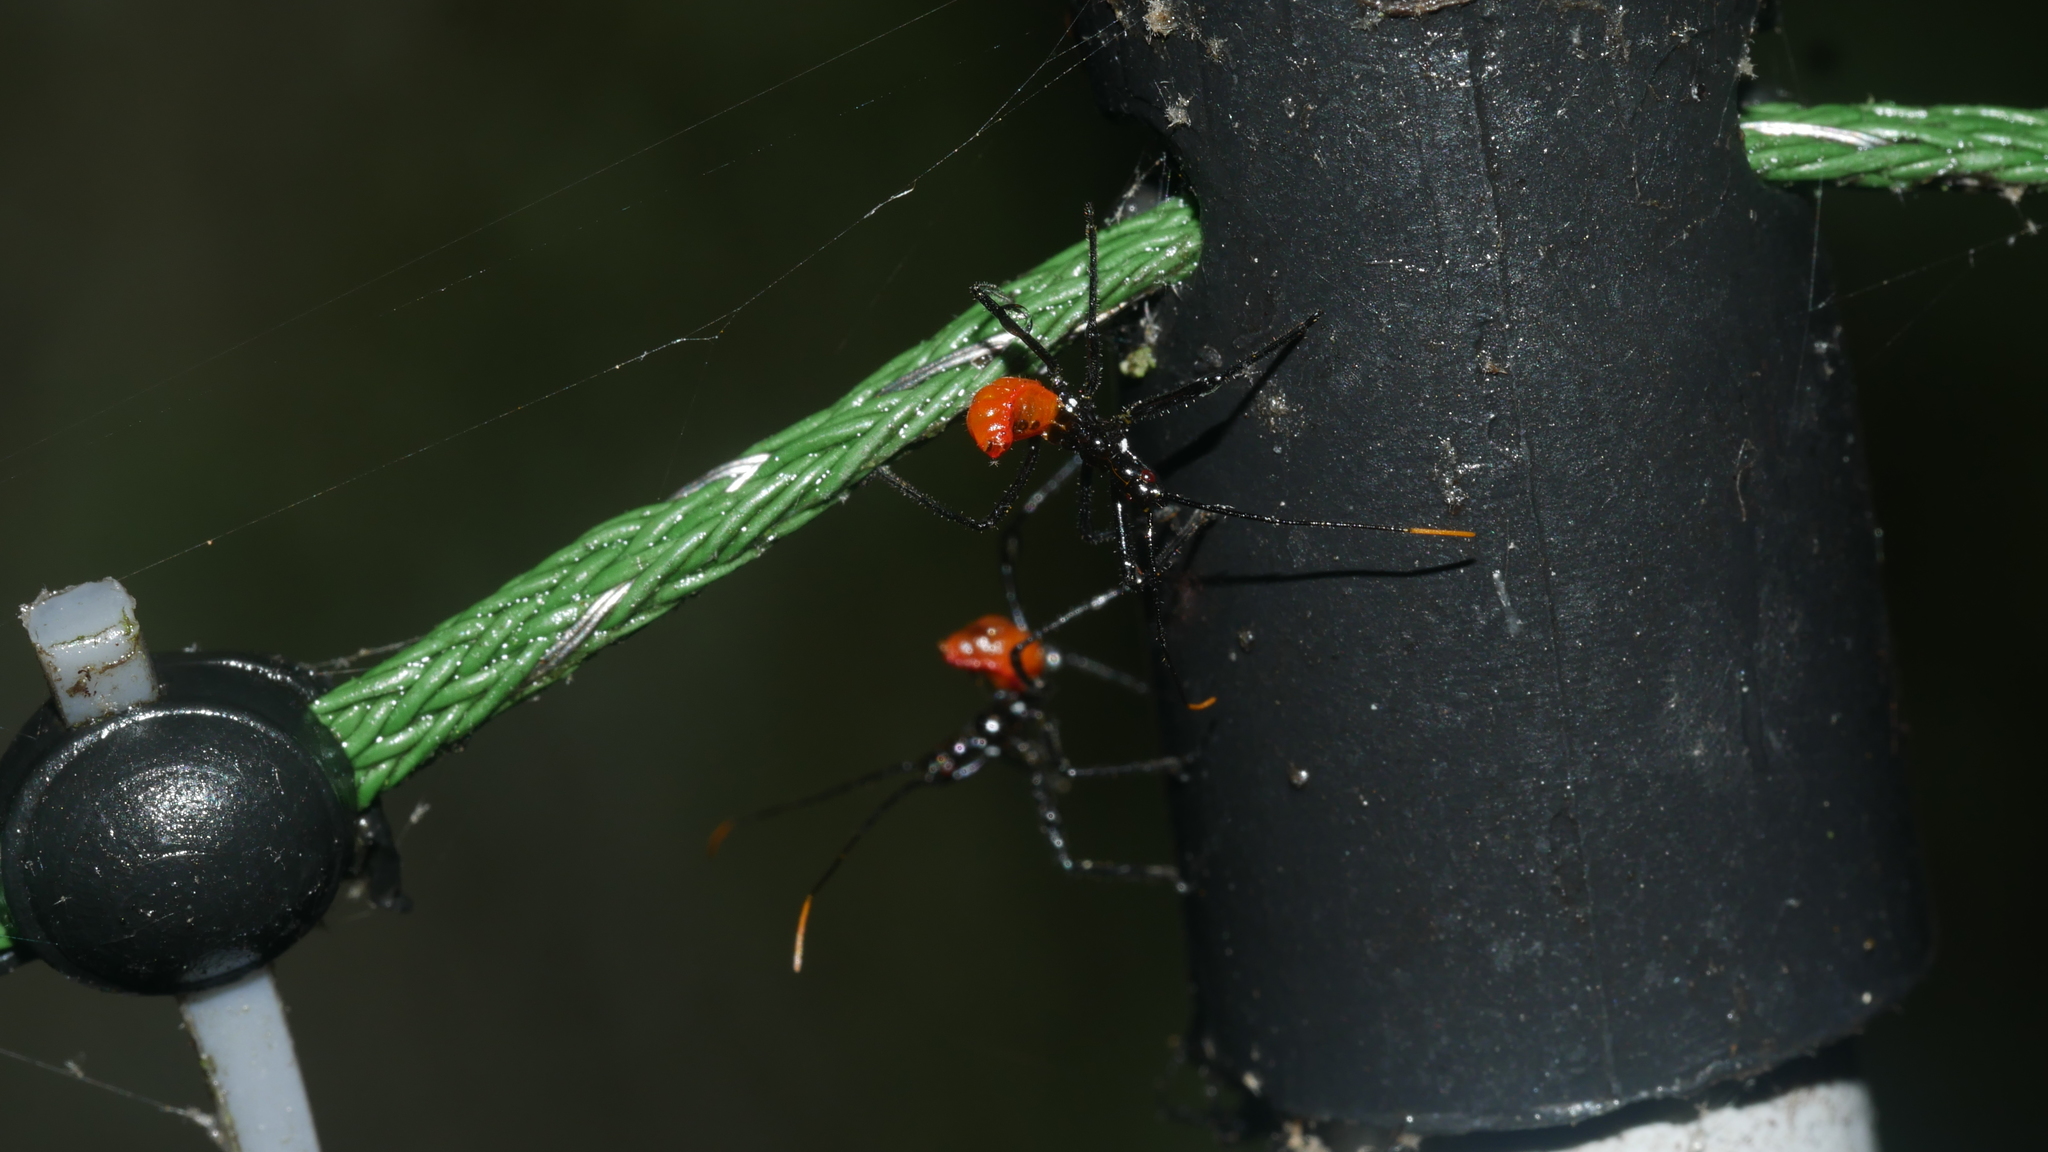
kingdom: Animalia
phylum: Arthropoda
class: Insecta
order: Hemiptera
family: Reduviidae
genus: Arilus
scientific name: Arilus cristatus
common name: North american wheel bug
